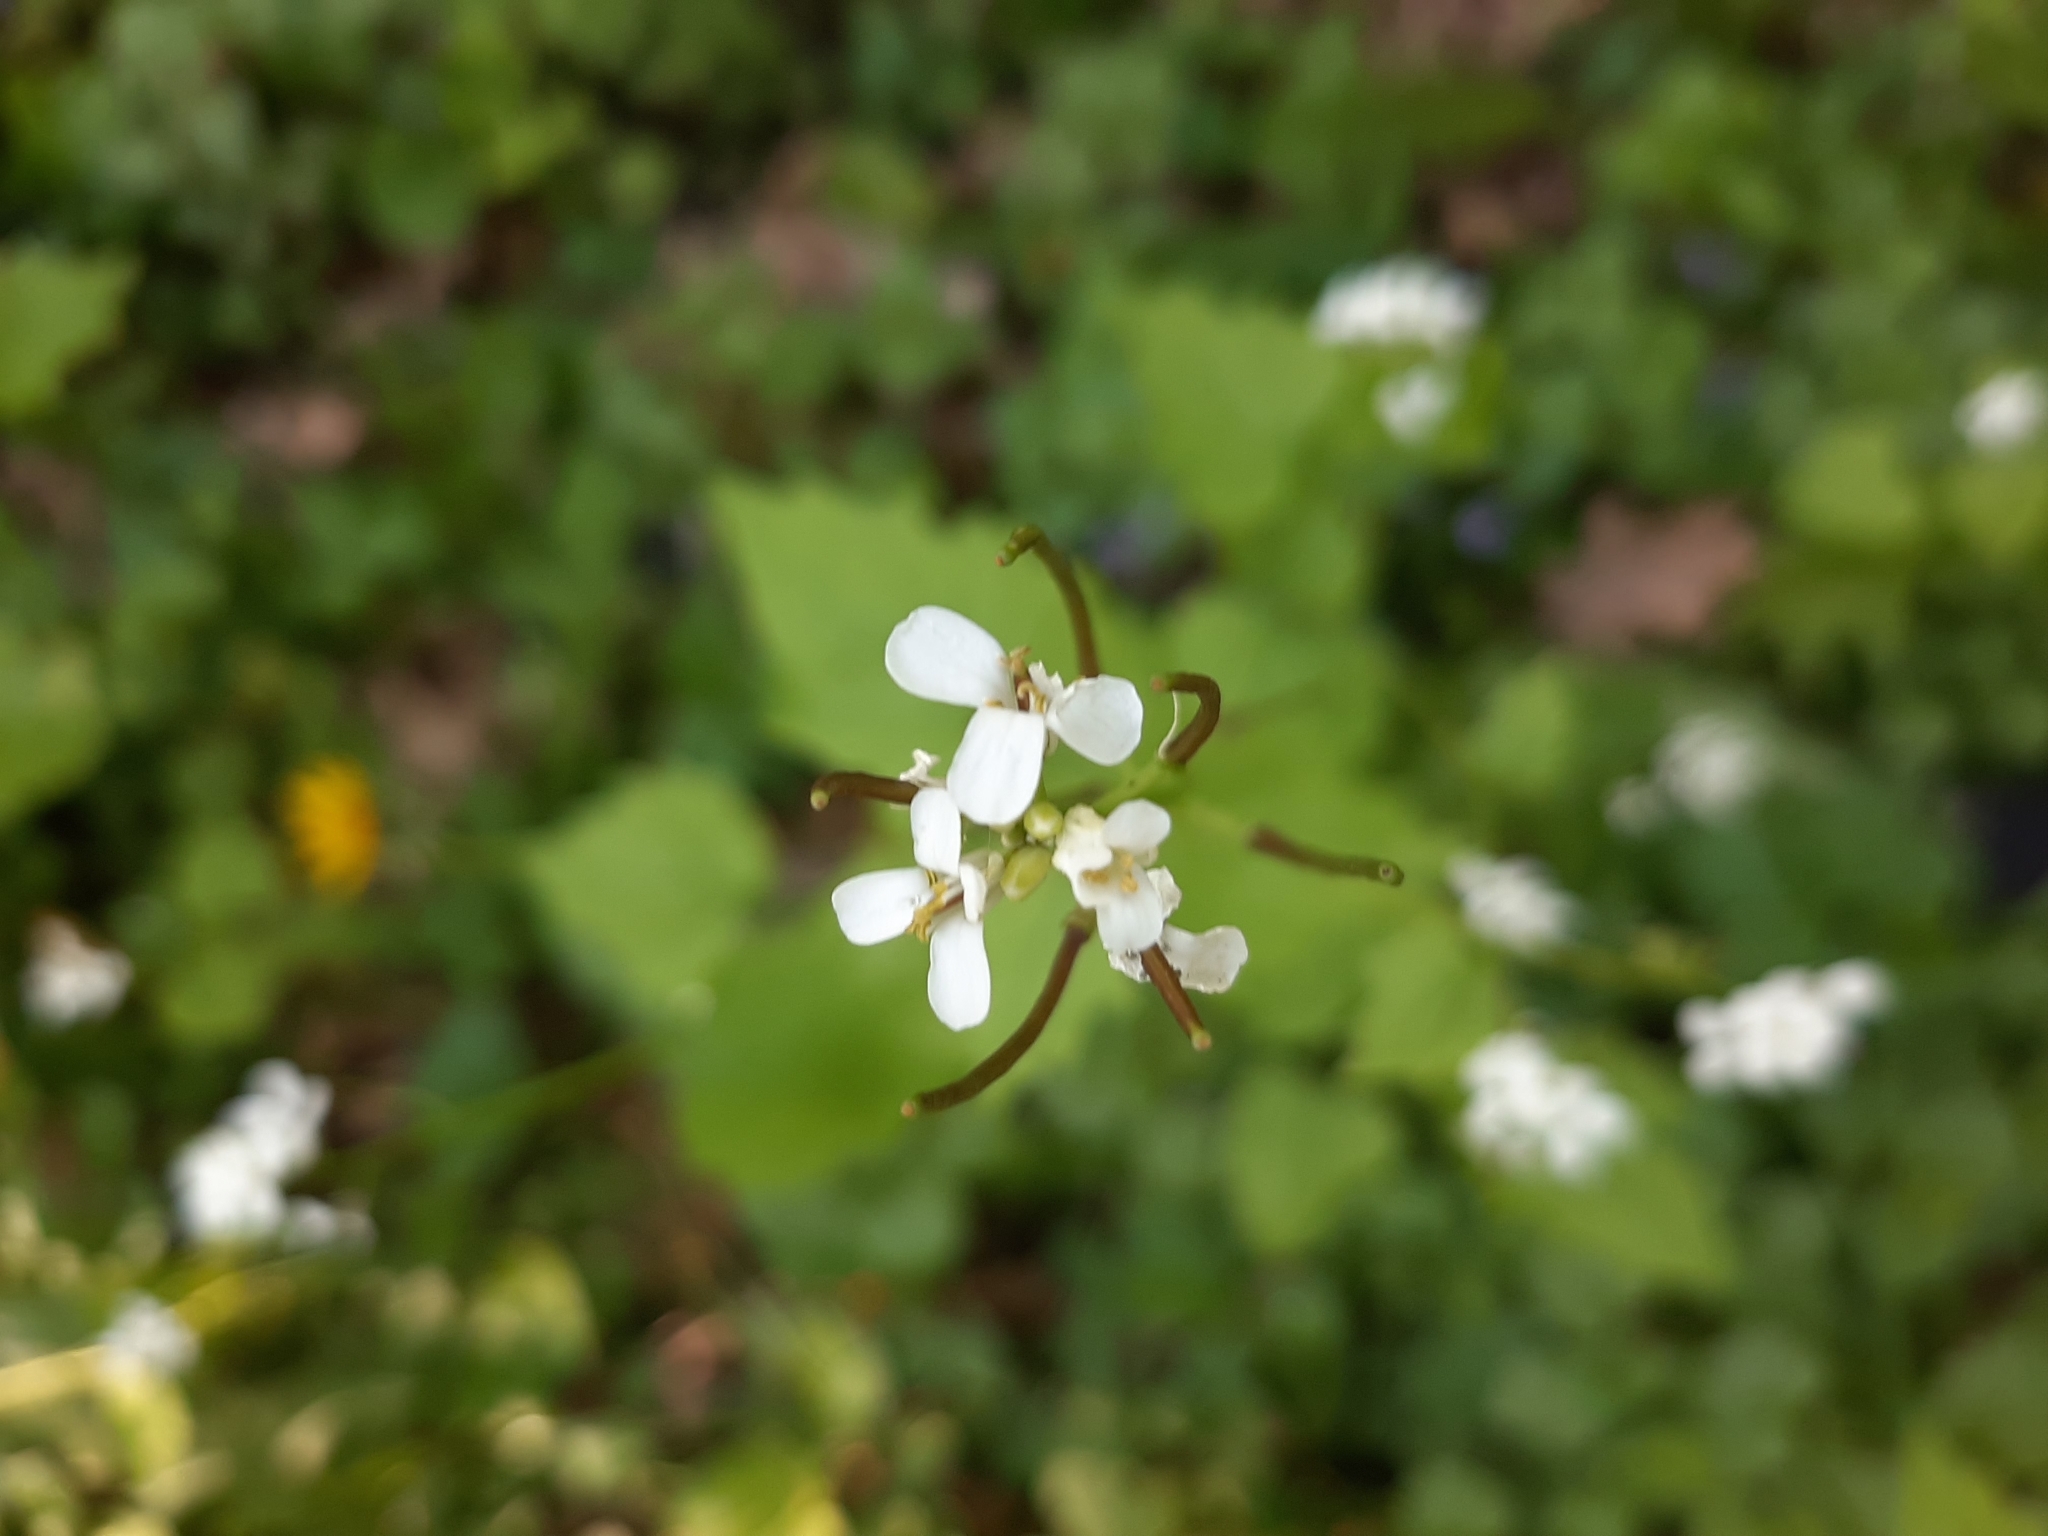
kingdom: Plantae
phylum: Tracheophyta
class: Magnoliopsida
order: Brassicales
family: Brassicaceae
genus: Alliaria
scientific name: Alliaria petiolata
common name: Garlic mustard
